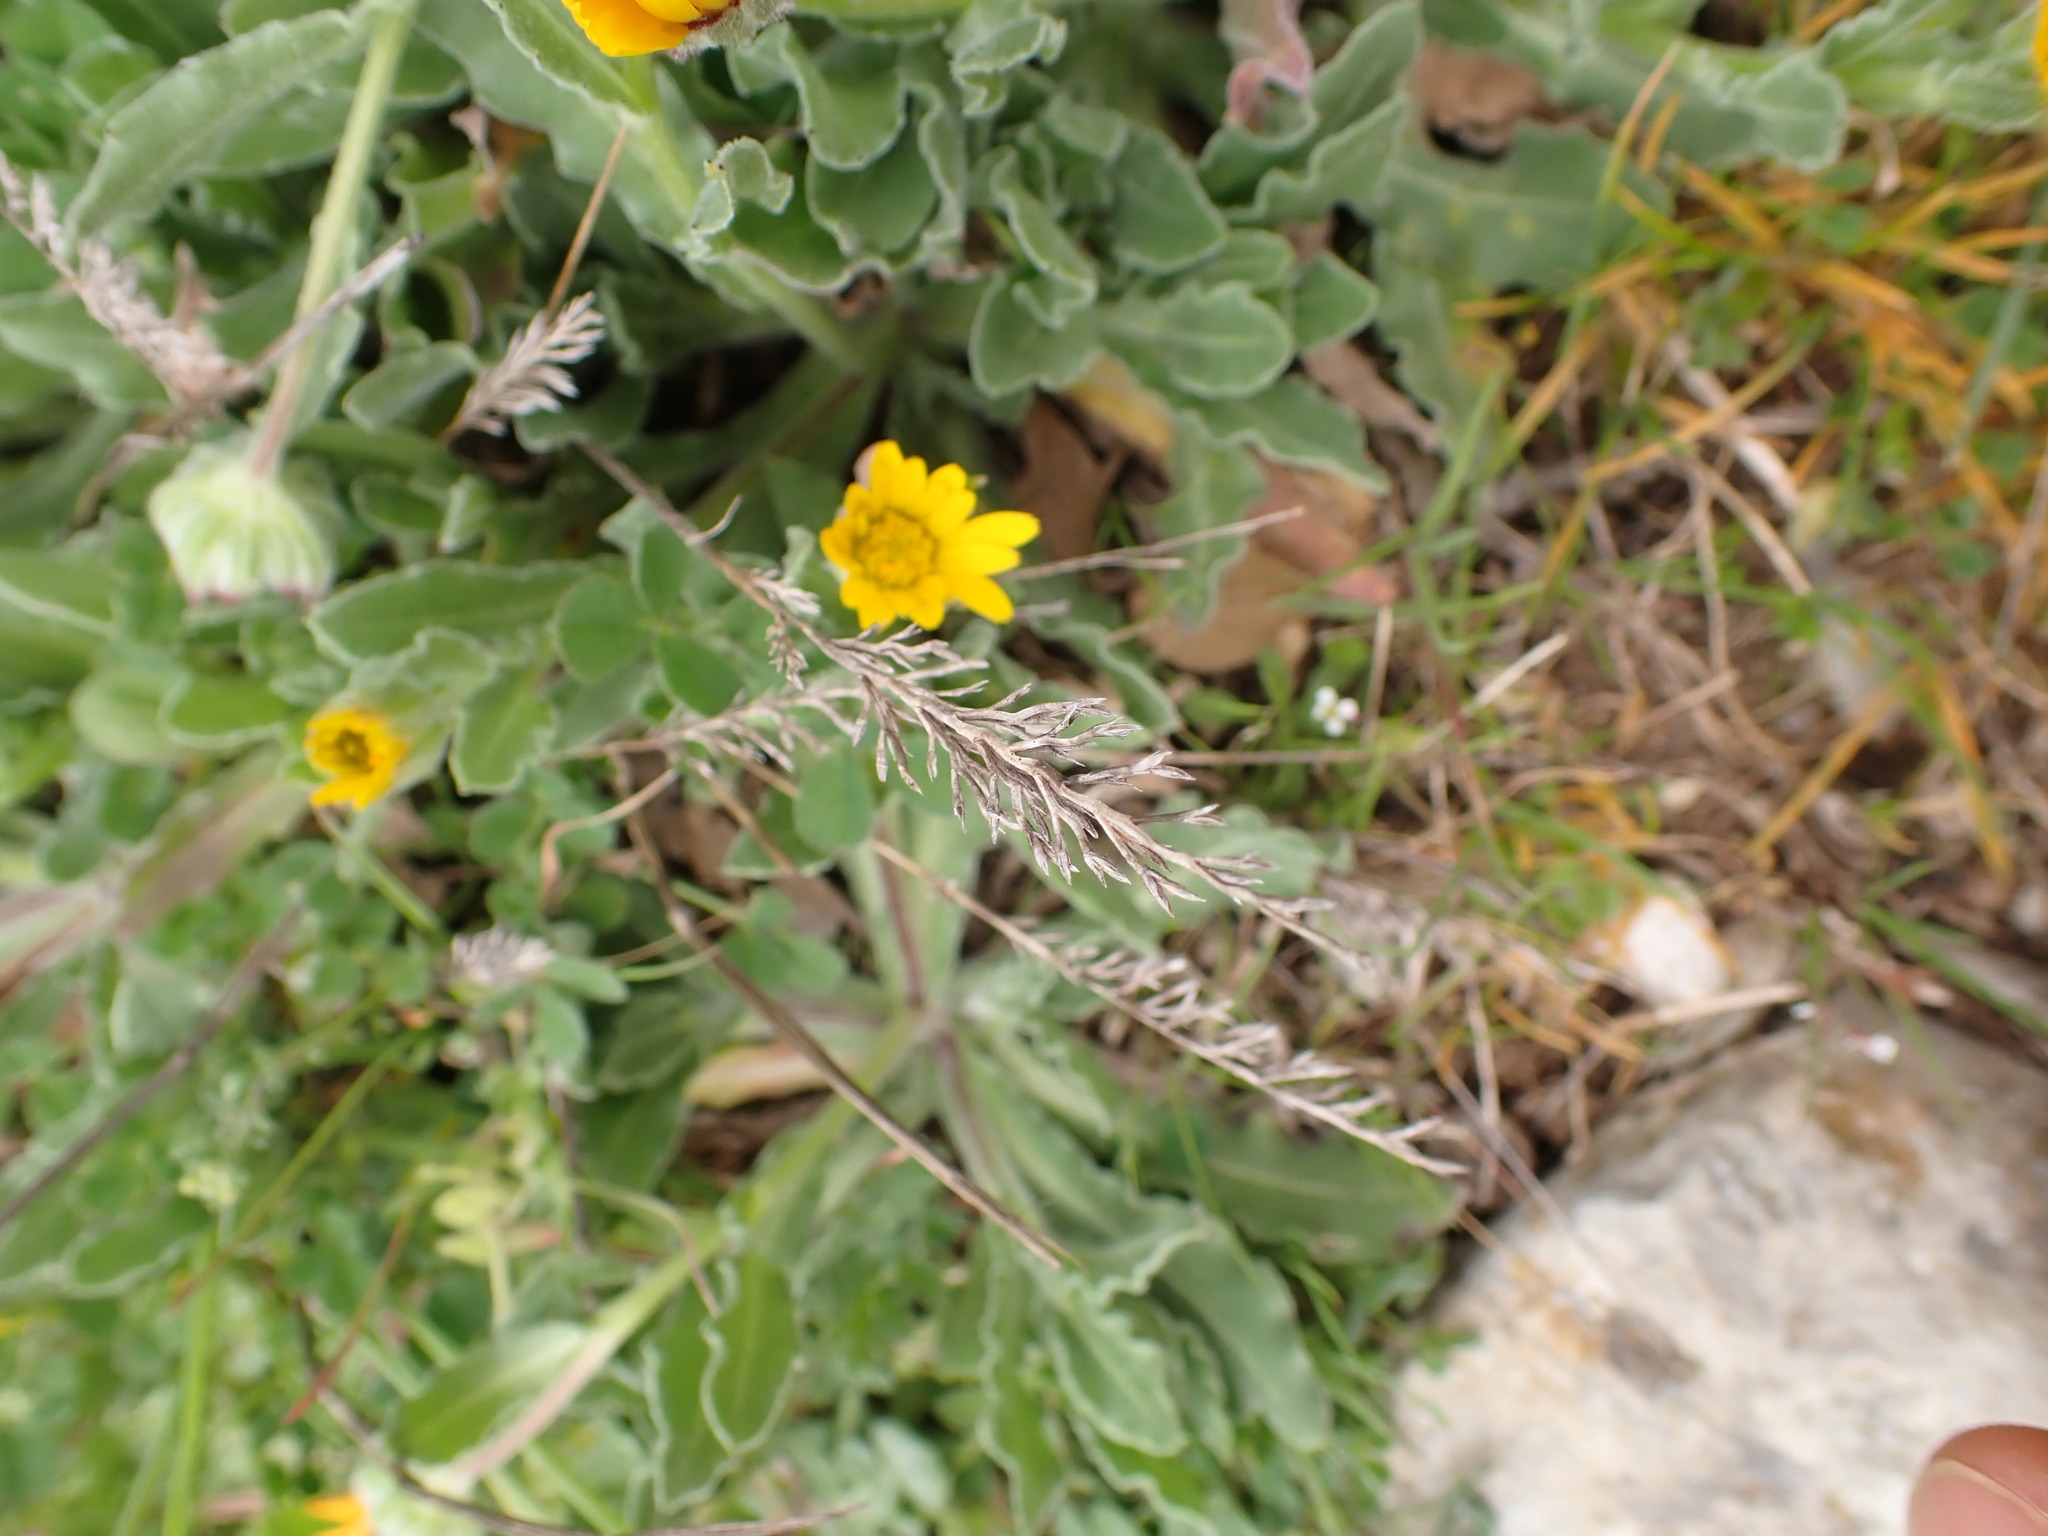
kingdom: Plantae
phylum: Tracheophyta
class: Liliopsida
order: Poales
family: Poaceae
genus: Catapodium
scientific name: Catapodium rigidum
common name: Fern-grass
